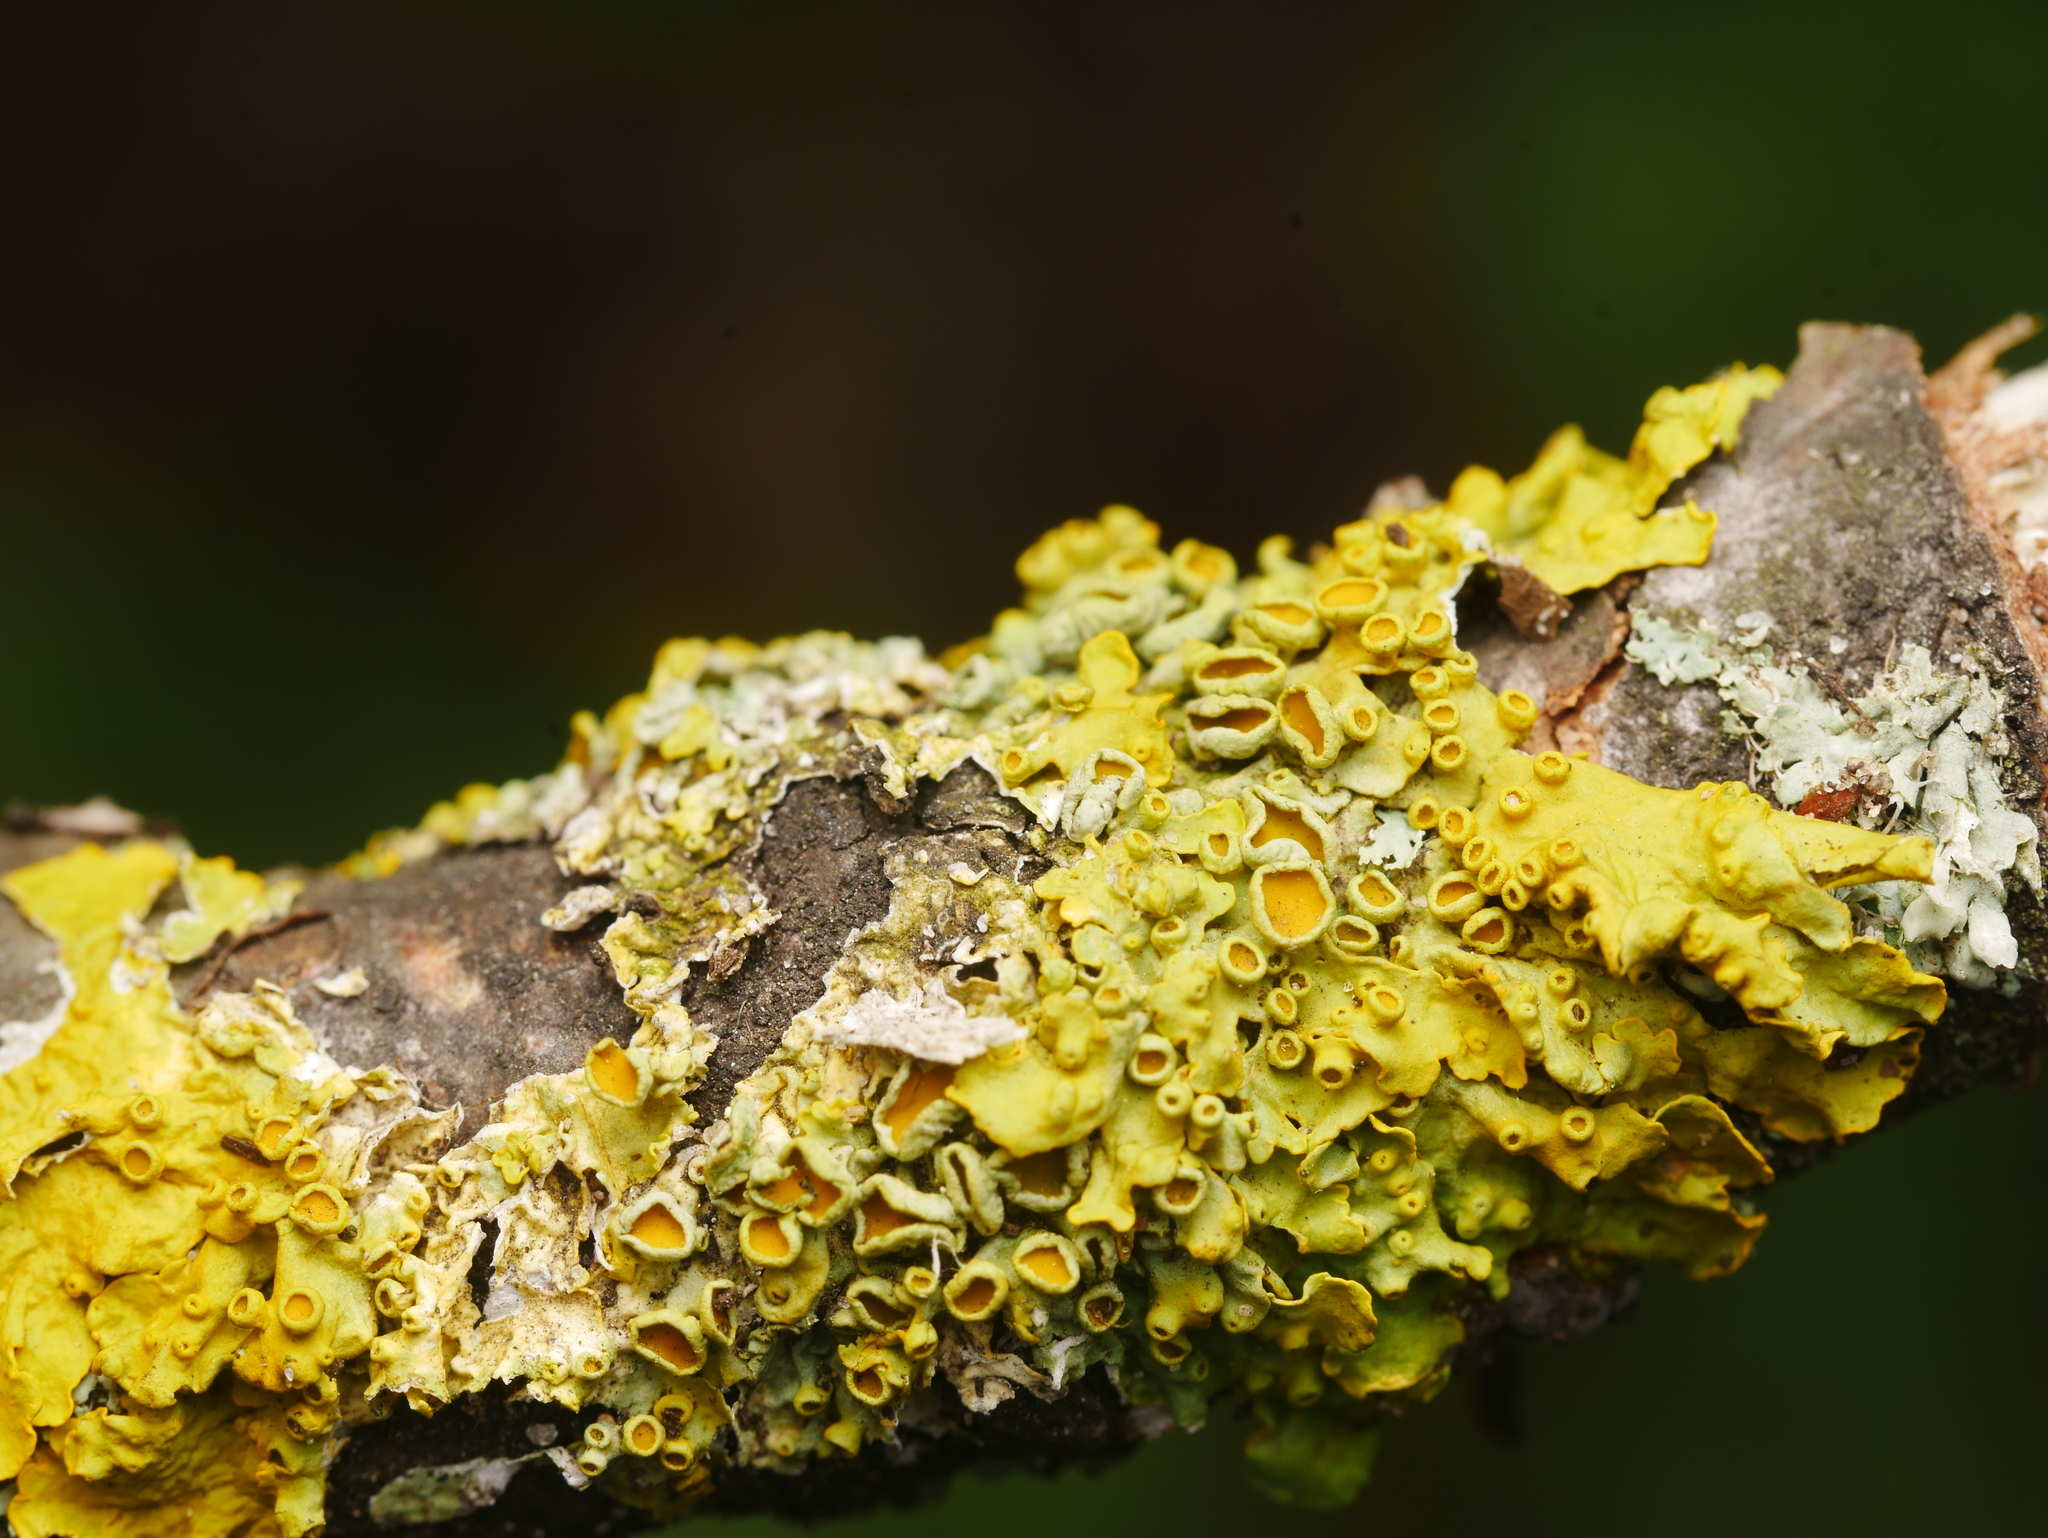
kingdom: Fungi
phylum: Ascomycota
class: Lecanoromycetes
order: Teloschistales
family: Teloschistaceae
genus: Xanthoria
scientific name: Xanthoria parietina
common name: Common orange lichen
